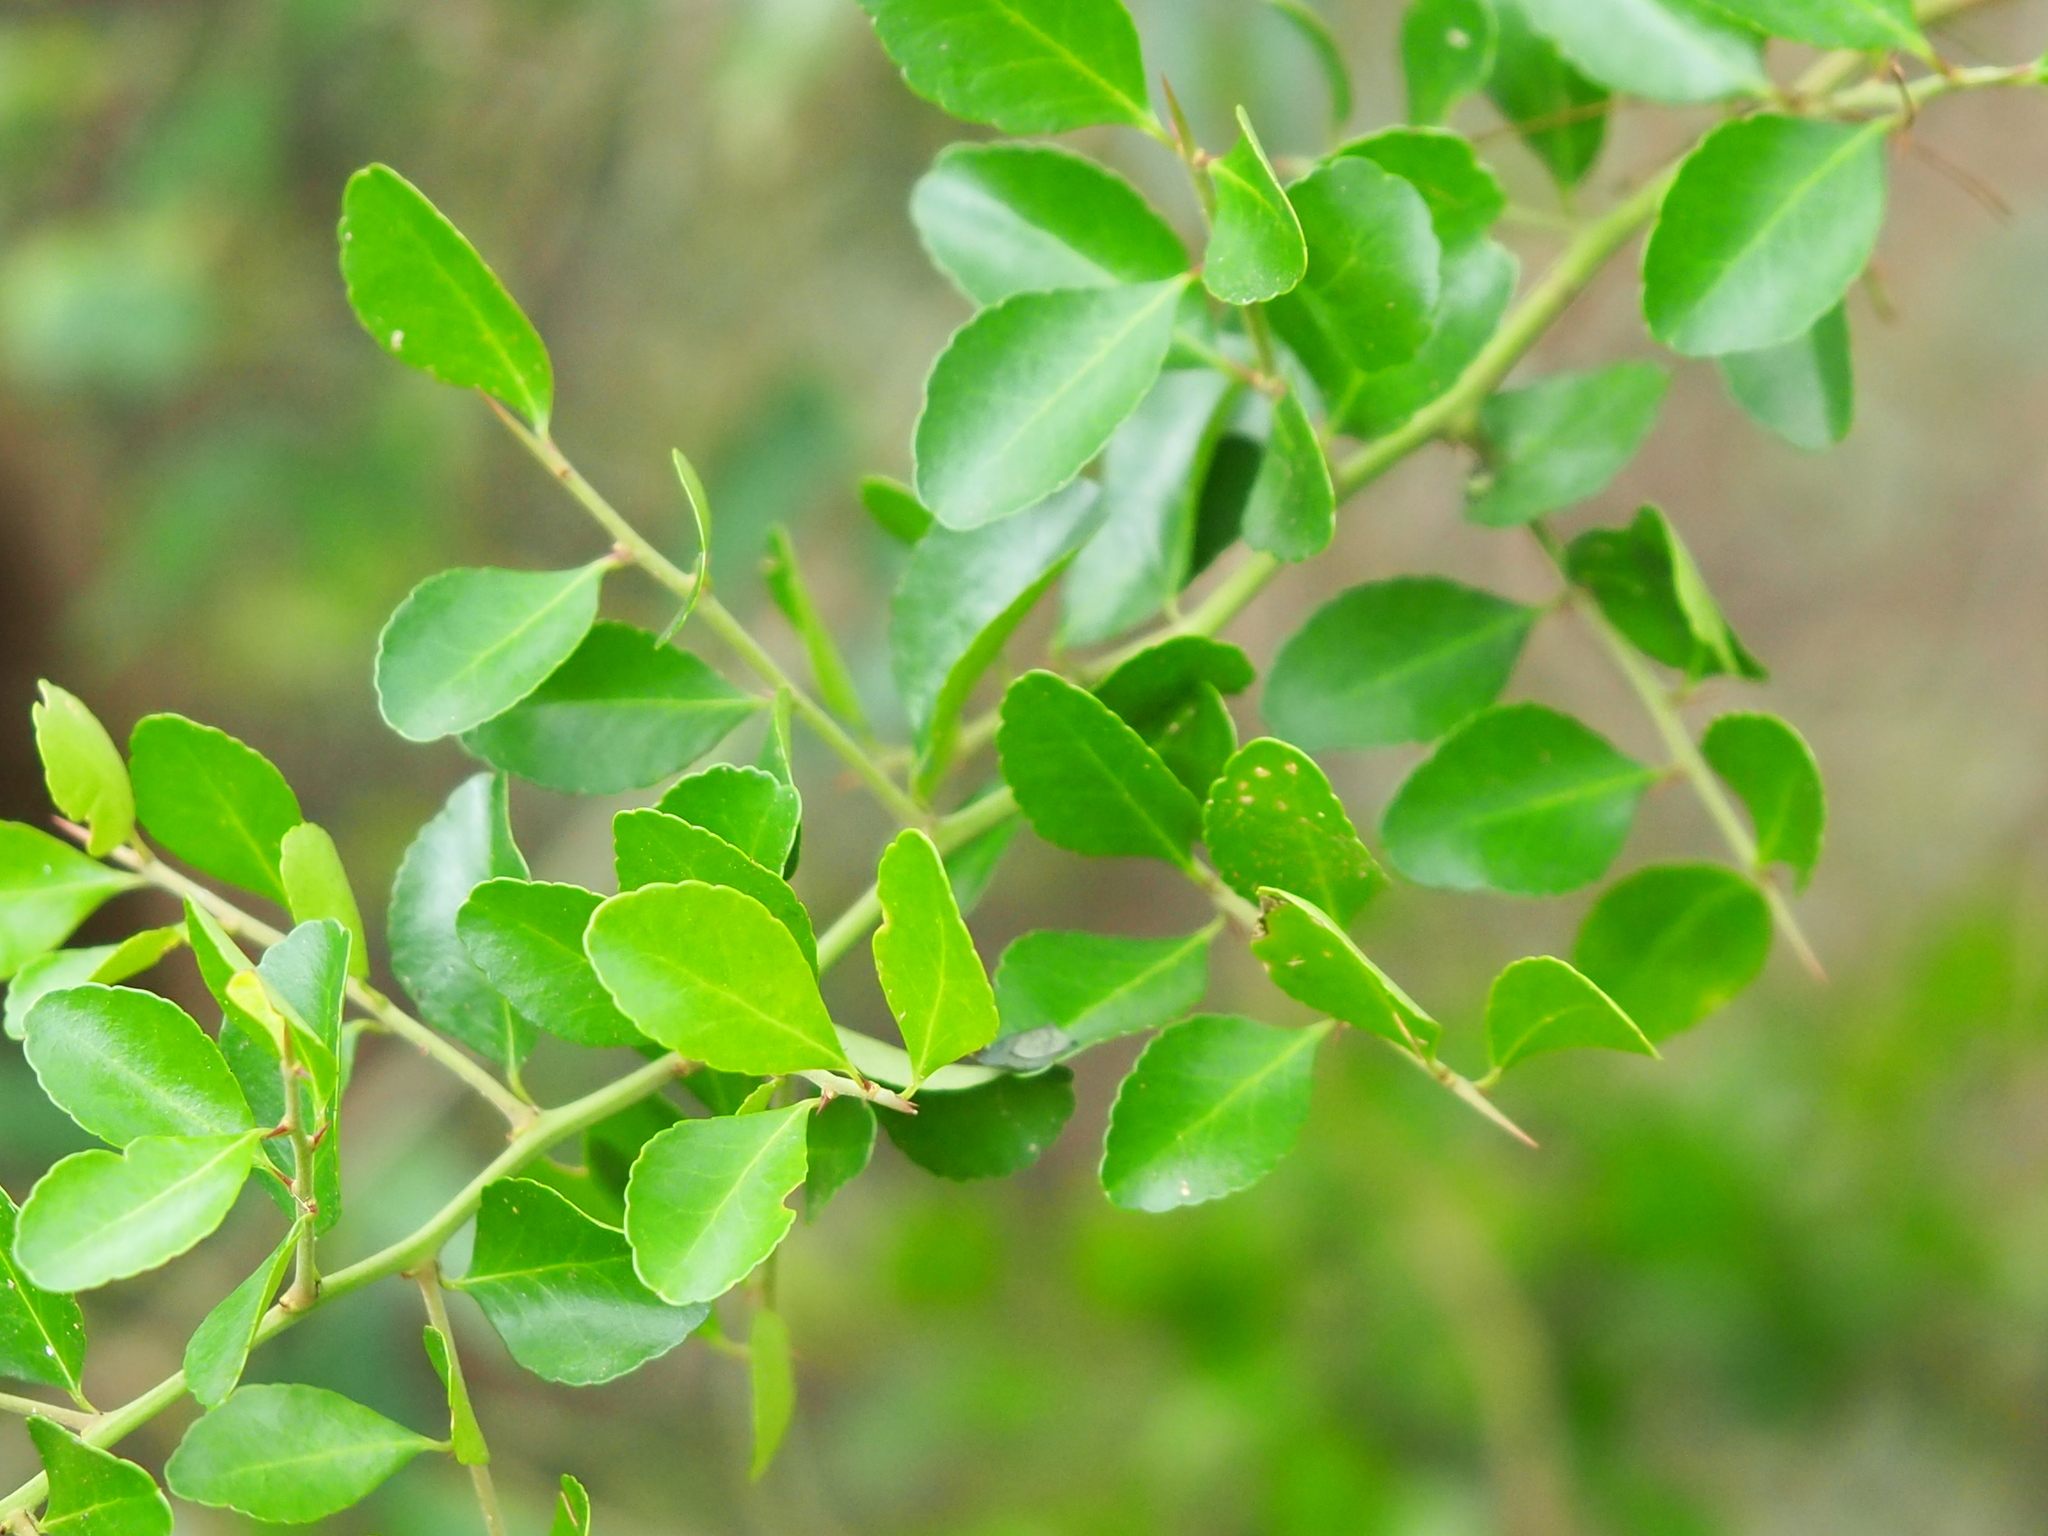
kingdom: Plantae
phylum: Tracheophyta
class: Magnoliopsida
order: Celastrales
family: Celastraceae
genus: Gymnosporia
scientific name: Gymnosporia diversifolia
